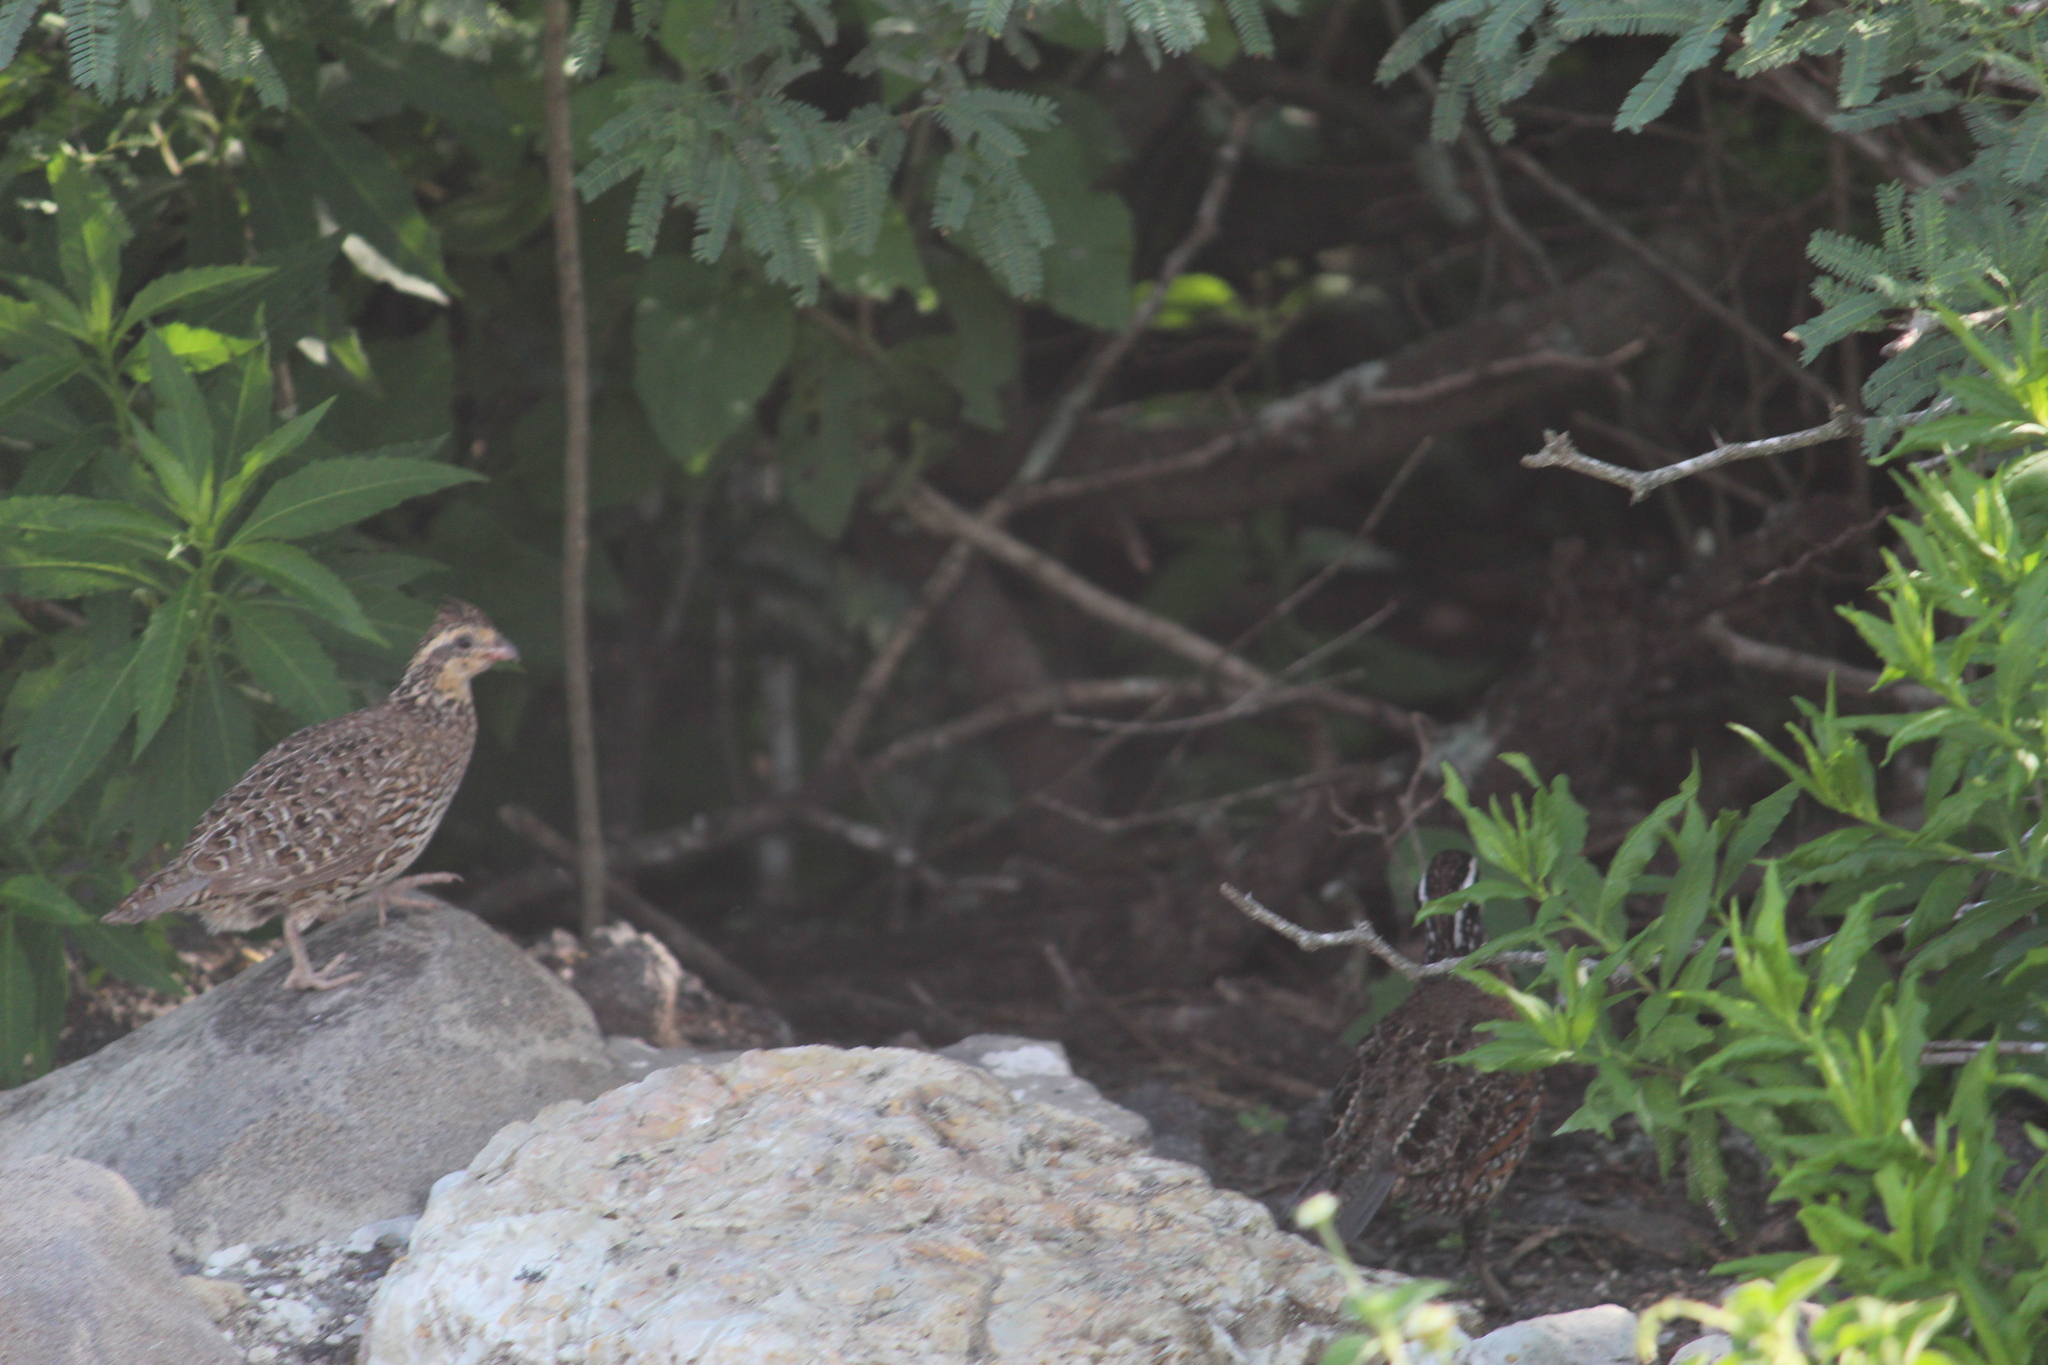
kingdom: Animalia
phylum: Chordata
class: Aves
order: Galliformes
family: Odontophoridae
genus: Colinus
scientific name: Colinus virginianus
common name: Northern bobwhite
